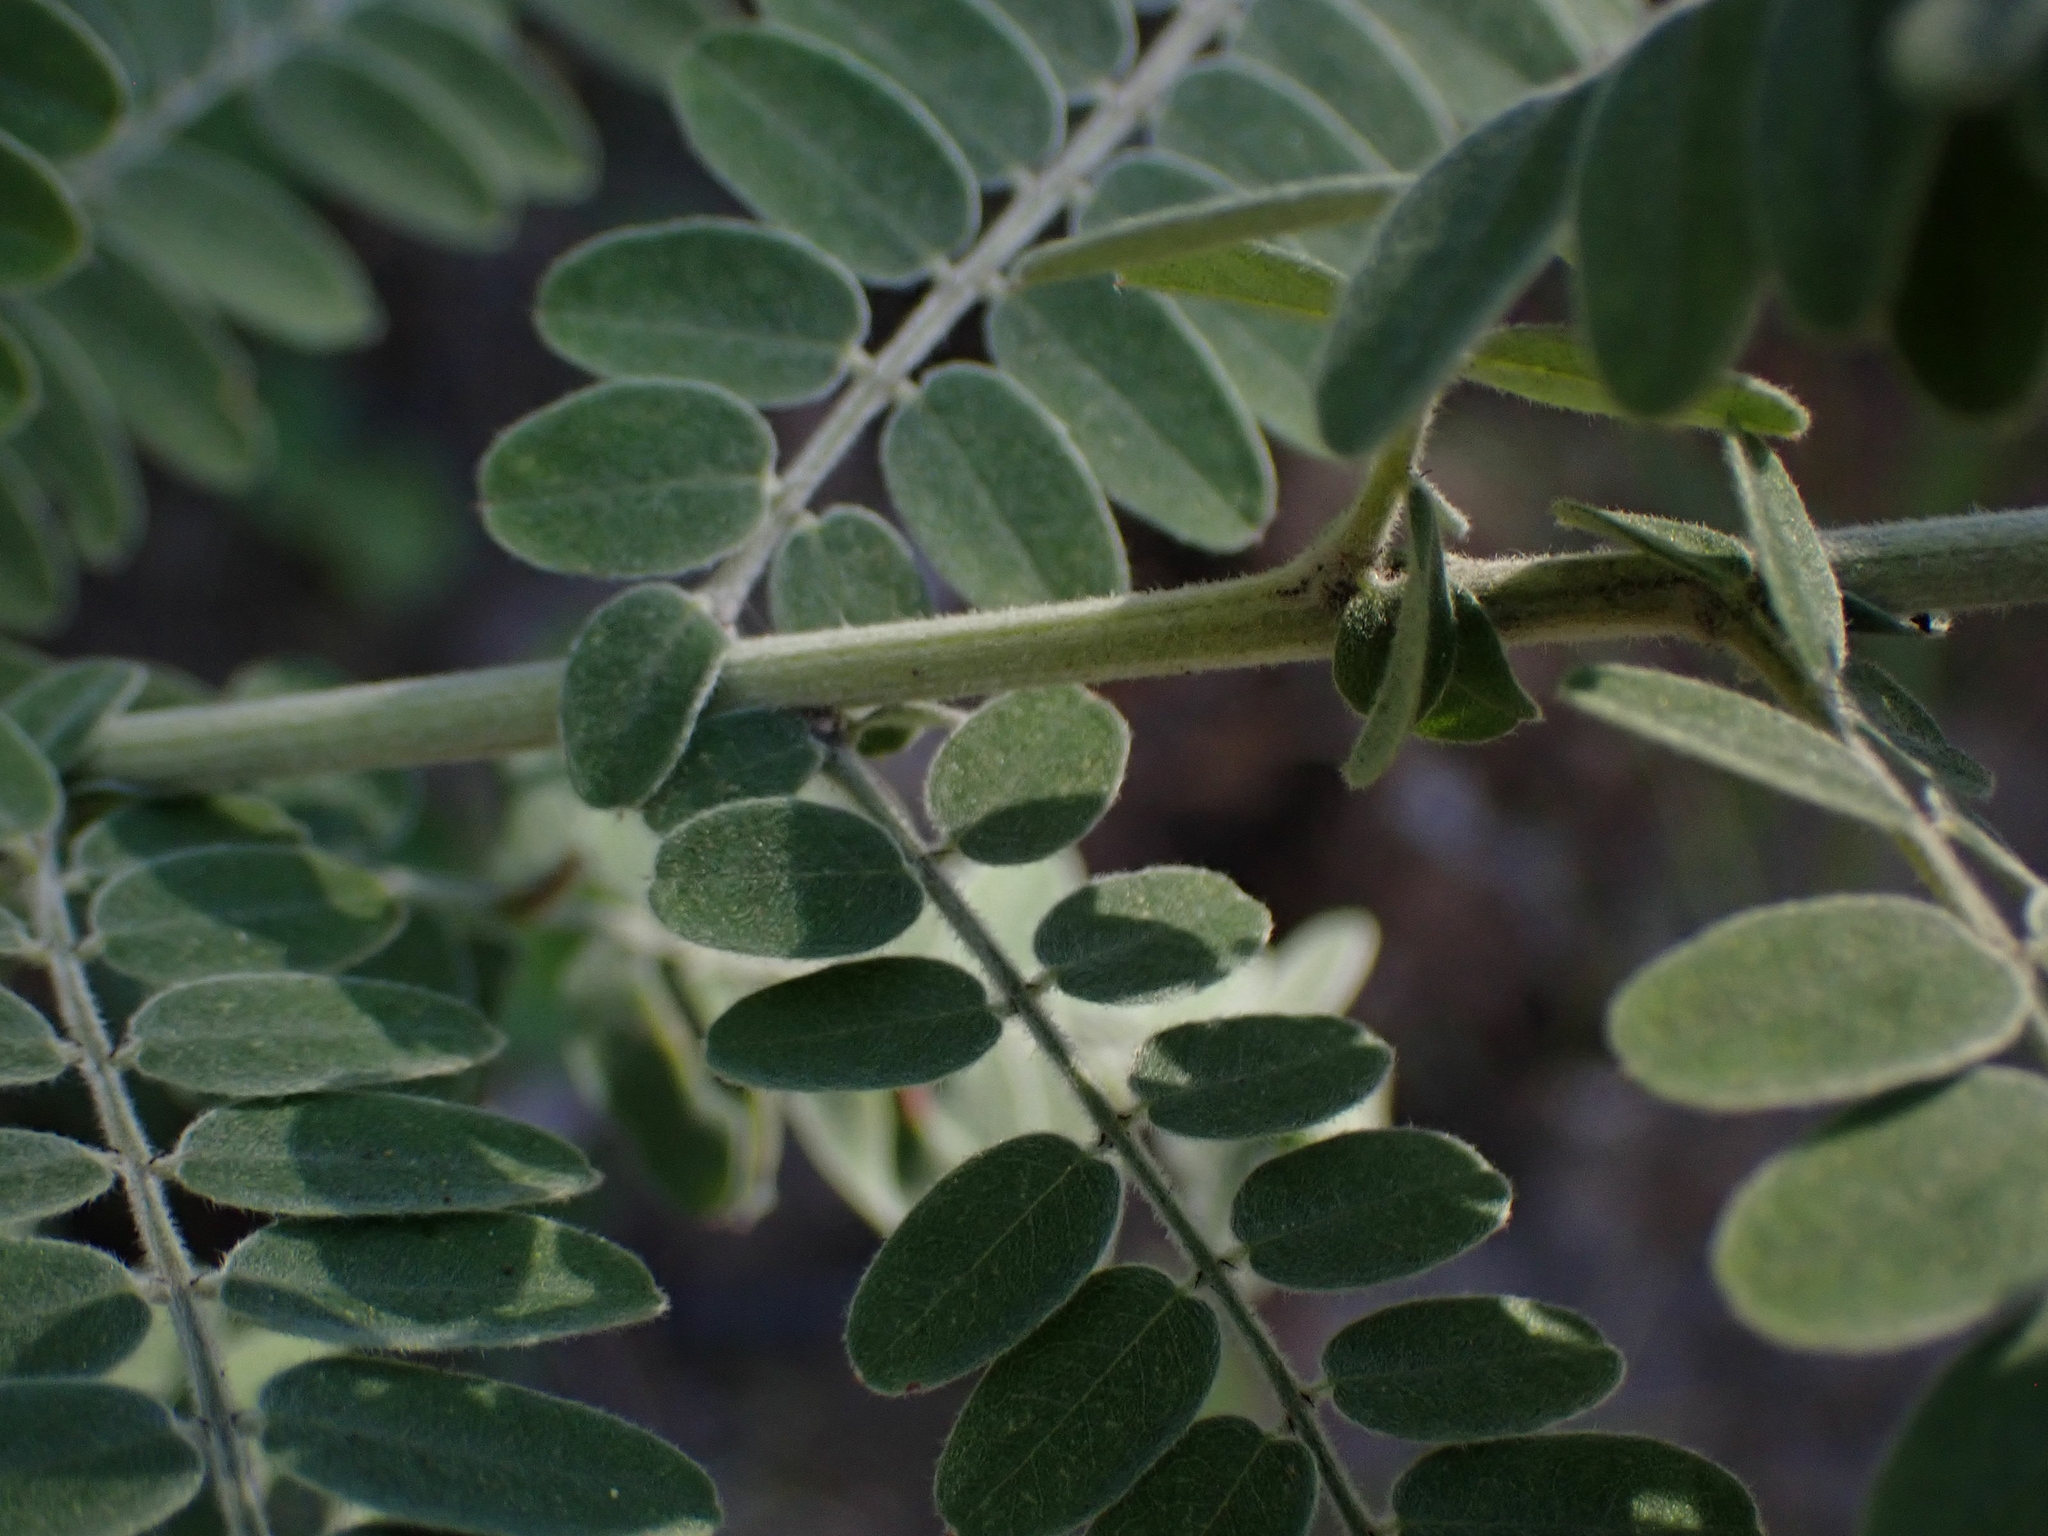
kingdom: Plantae
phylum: Tracheophyta
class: Magnoliopsida
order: Fabales
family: Fabaceae
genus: Amorpha
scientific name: Amorpha canescens
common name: Leadplant
